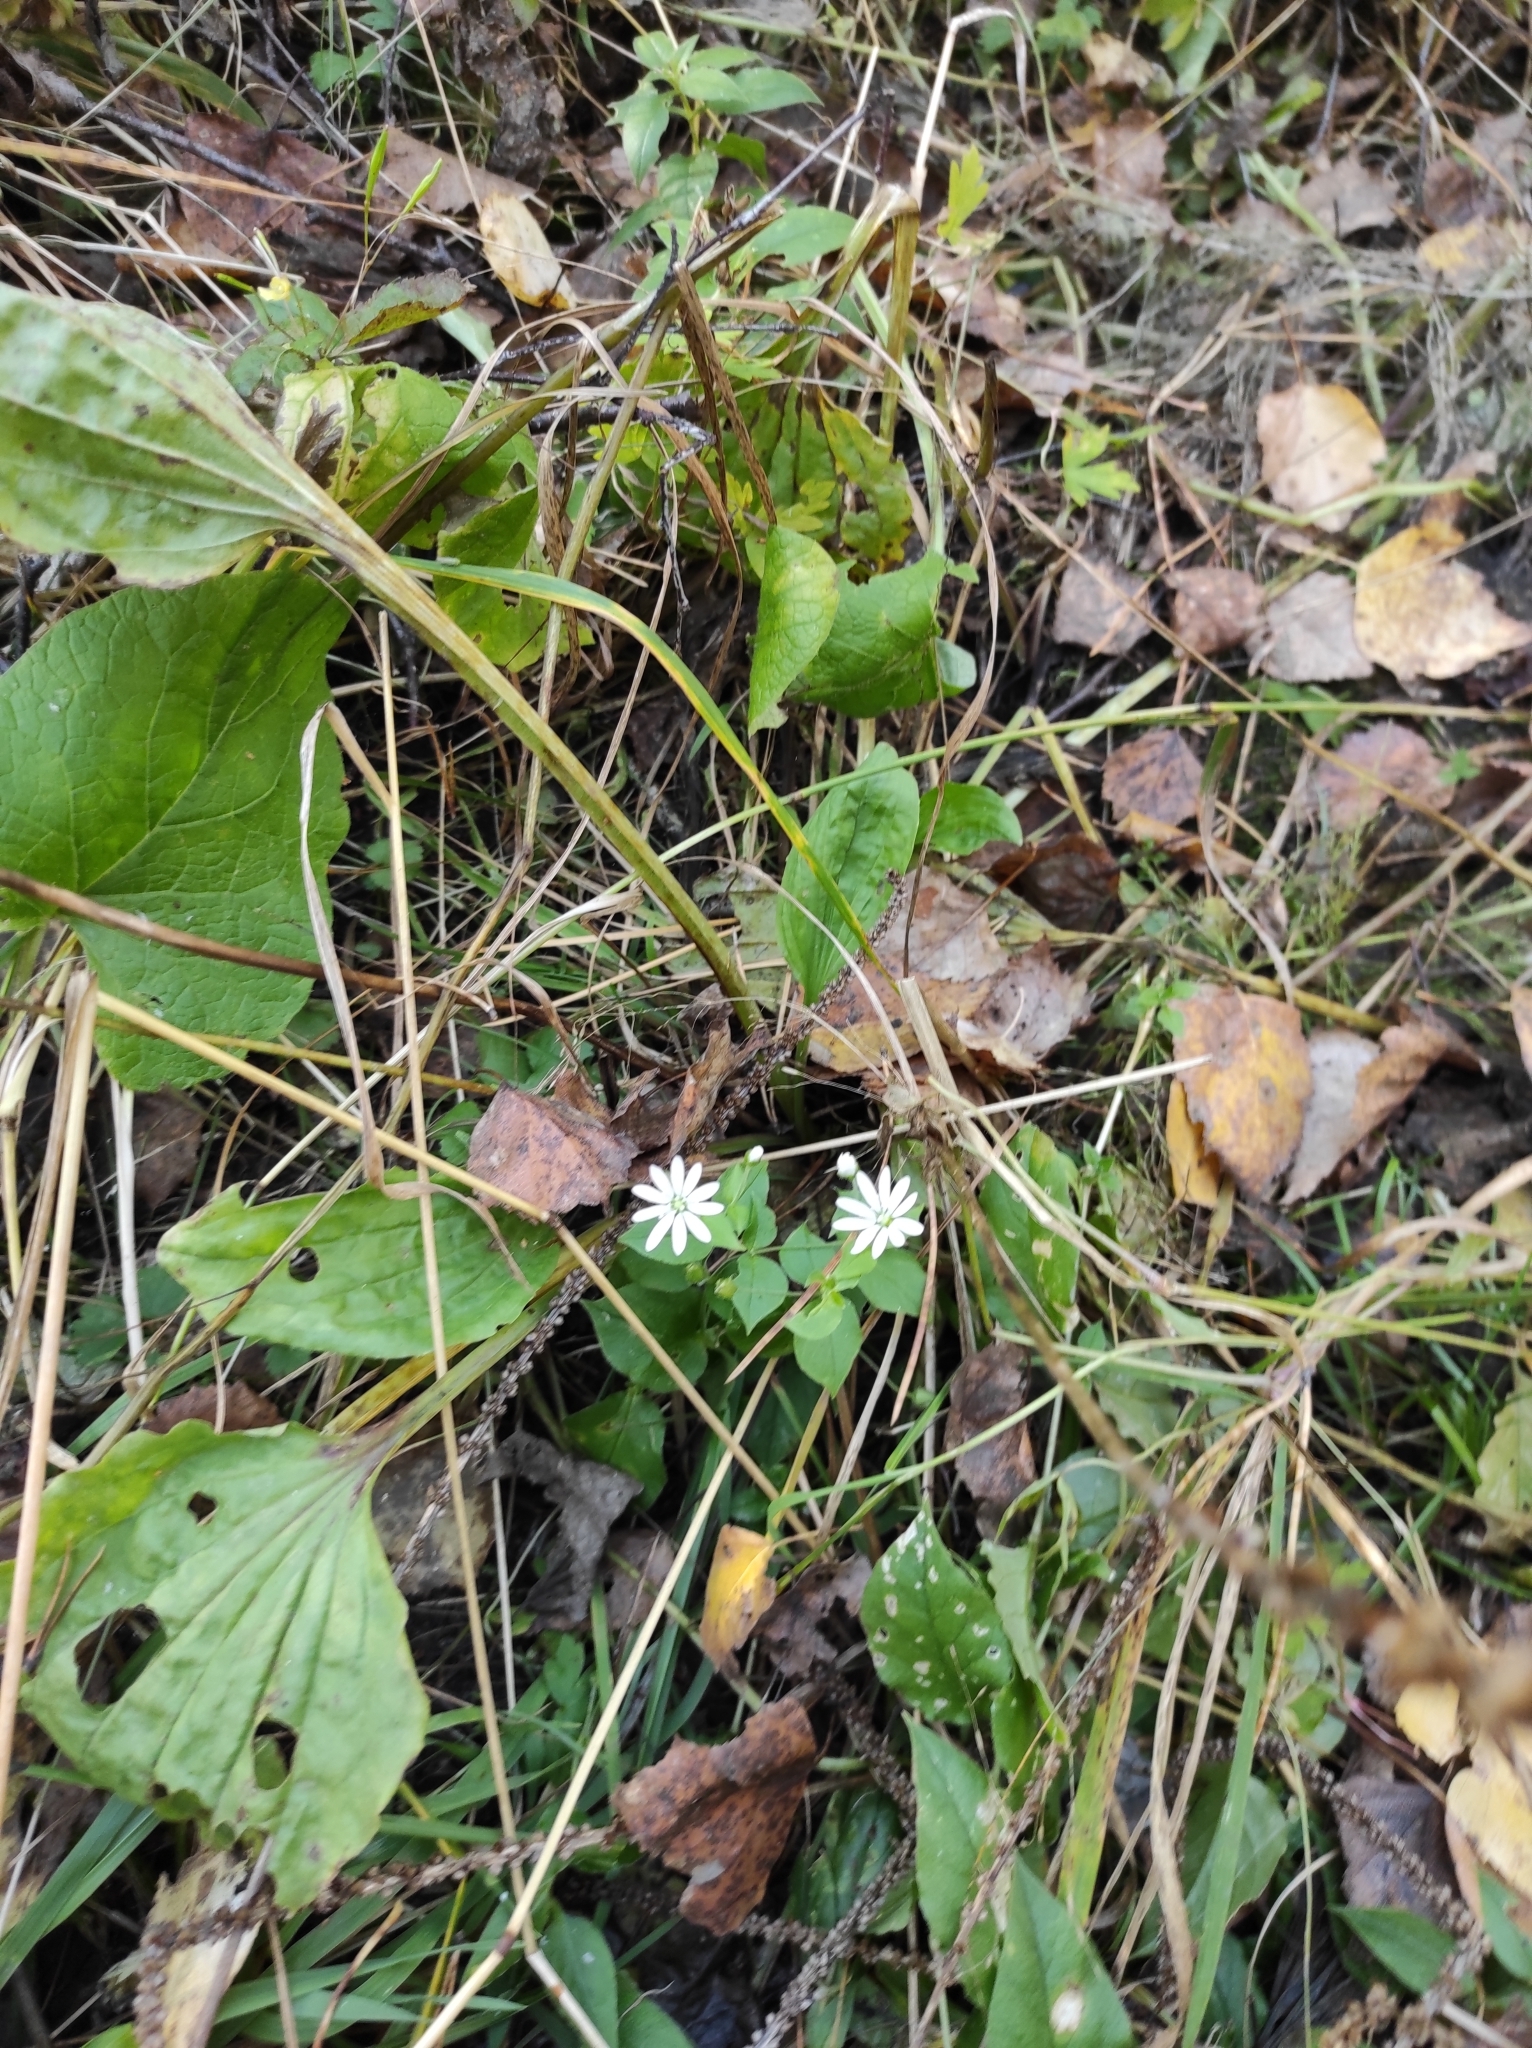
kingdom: Plantae
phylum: Tracheophyta
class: Magnoliopsida
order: Caryophyllales
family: Caryophyllaceae
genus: Stellaria
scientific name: Stellaria bungeana
